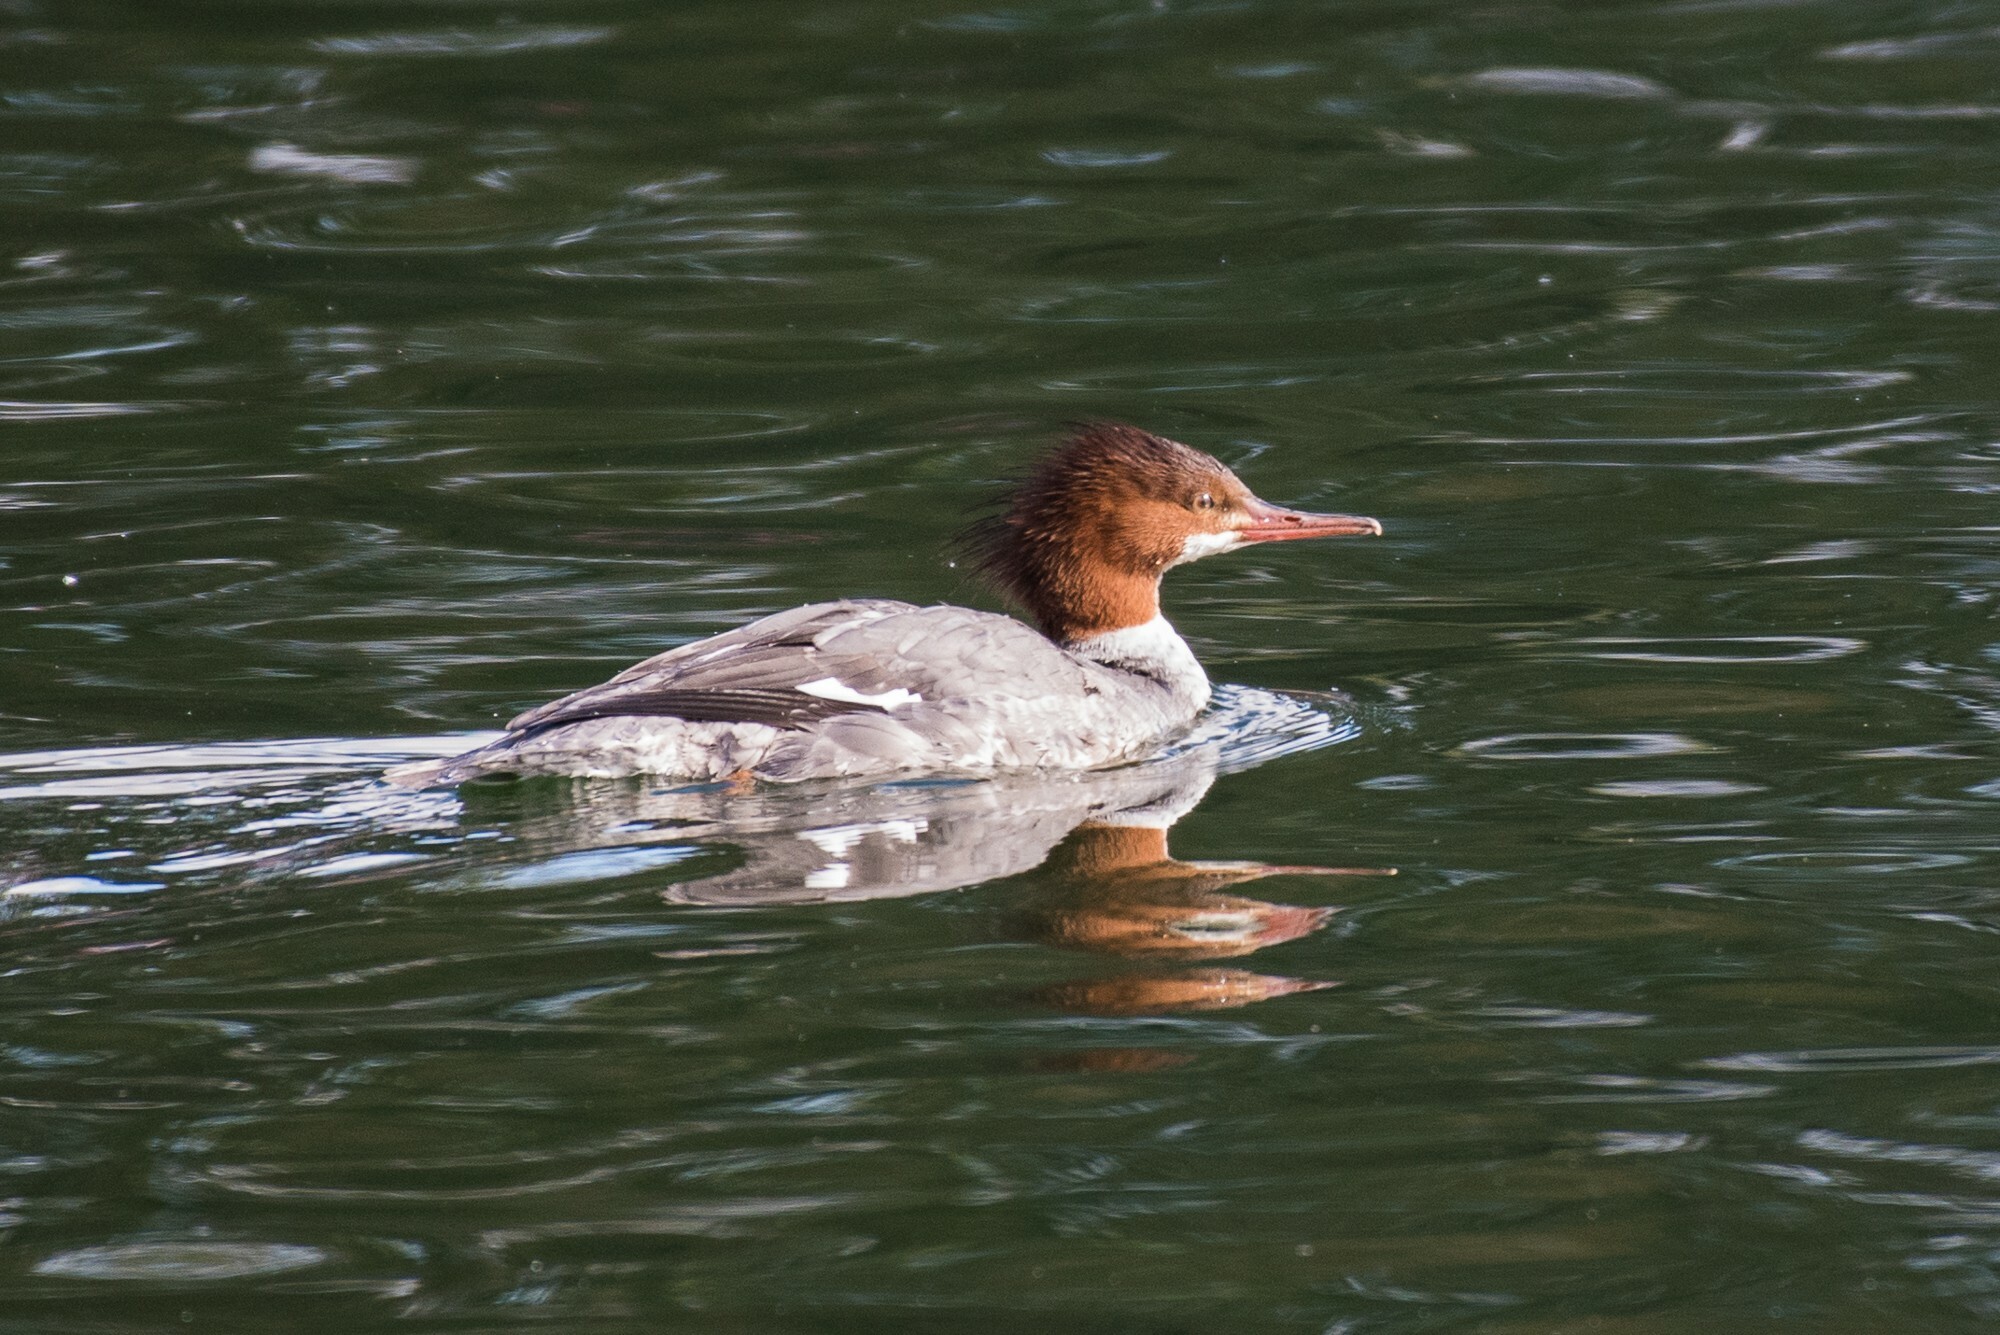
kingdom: Animalia
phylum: Chordata
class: Aves
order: Anseriformes
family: Anatidae
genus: Mergus
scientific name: Mergus merganser
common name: Common merganser
